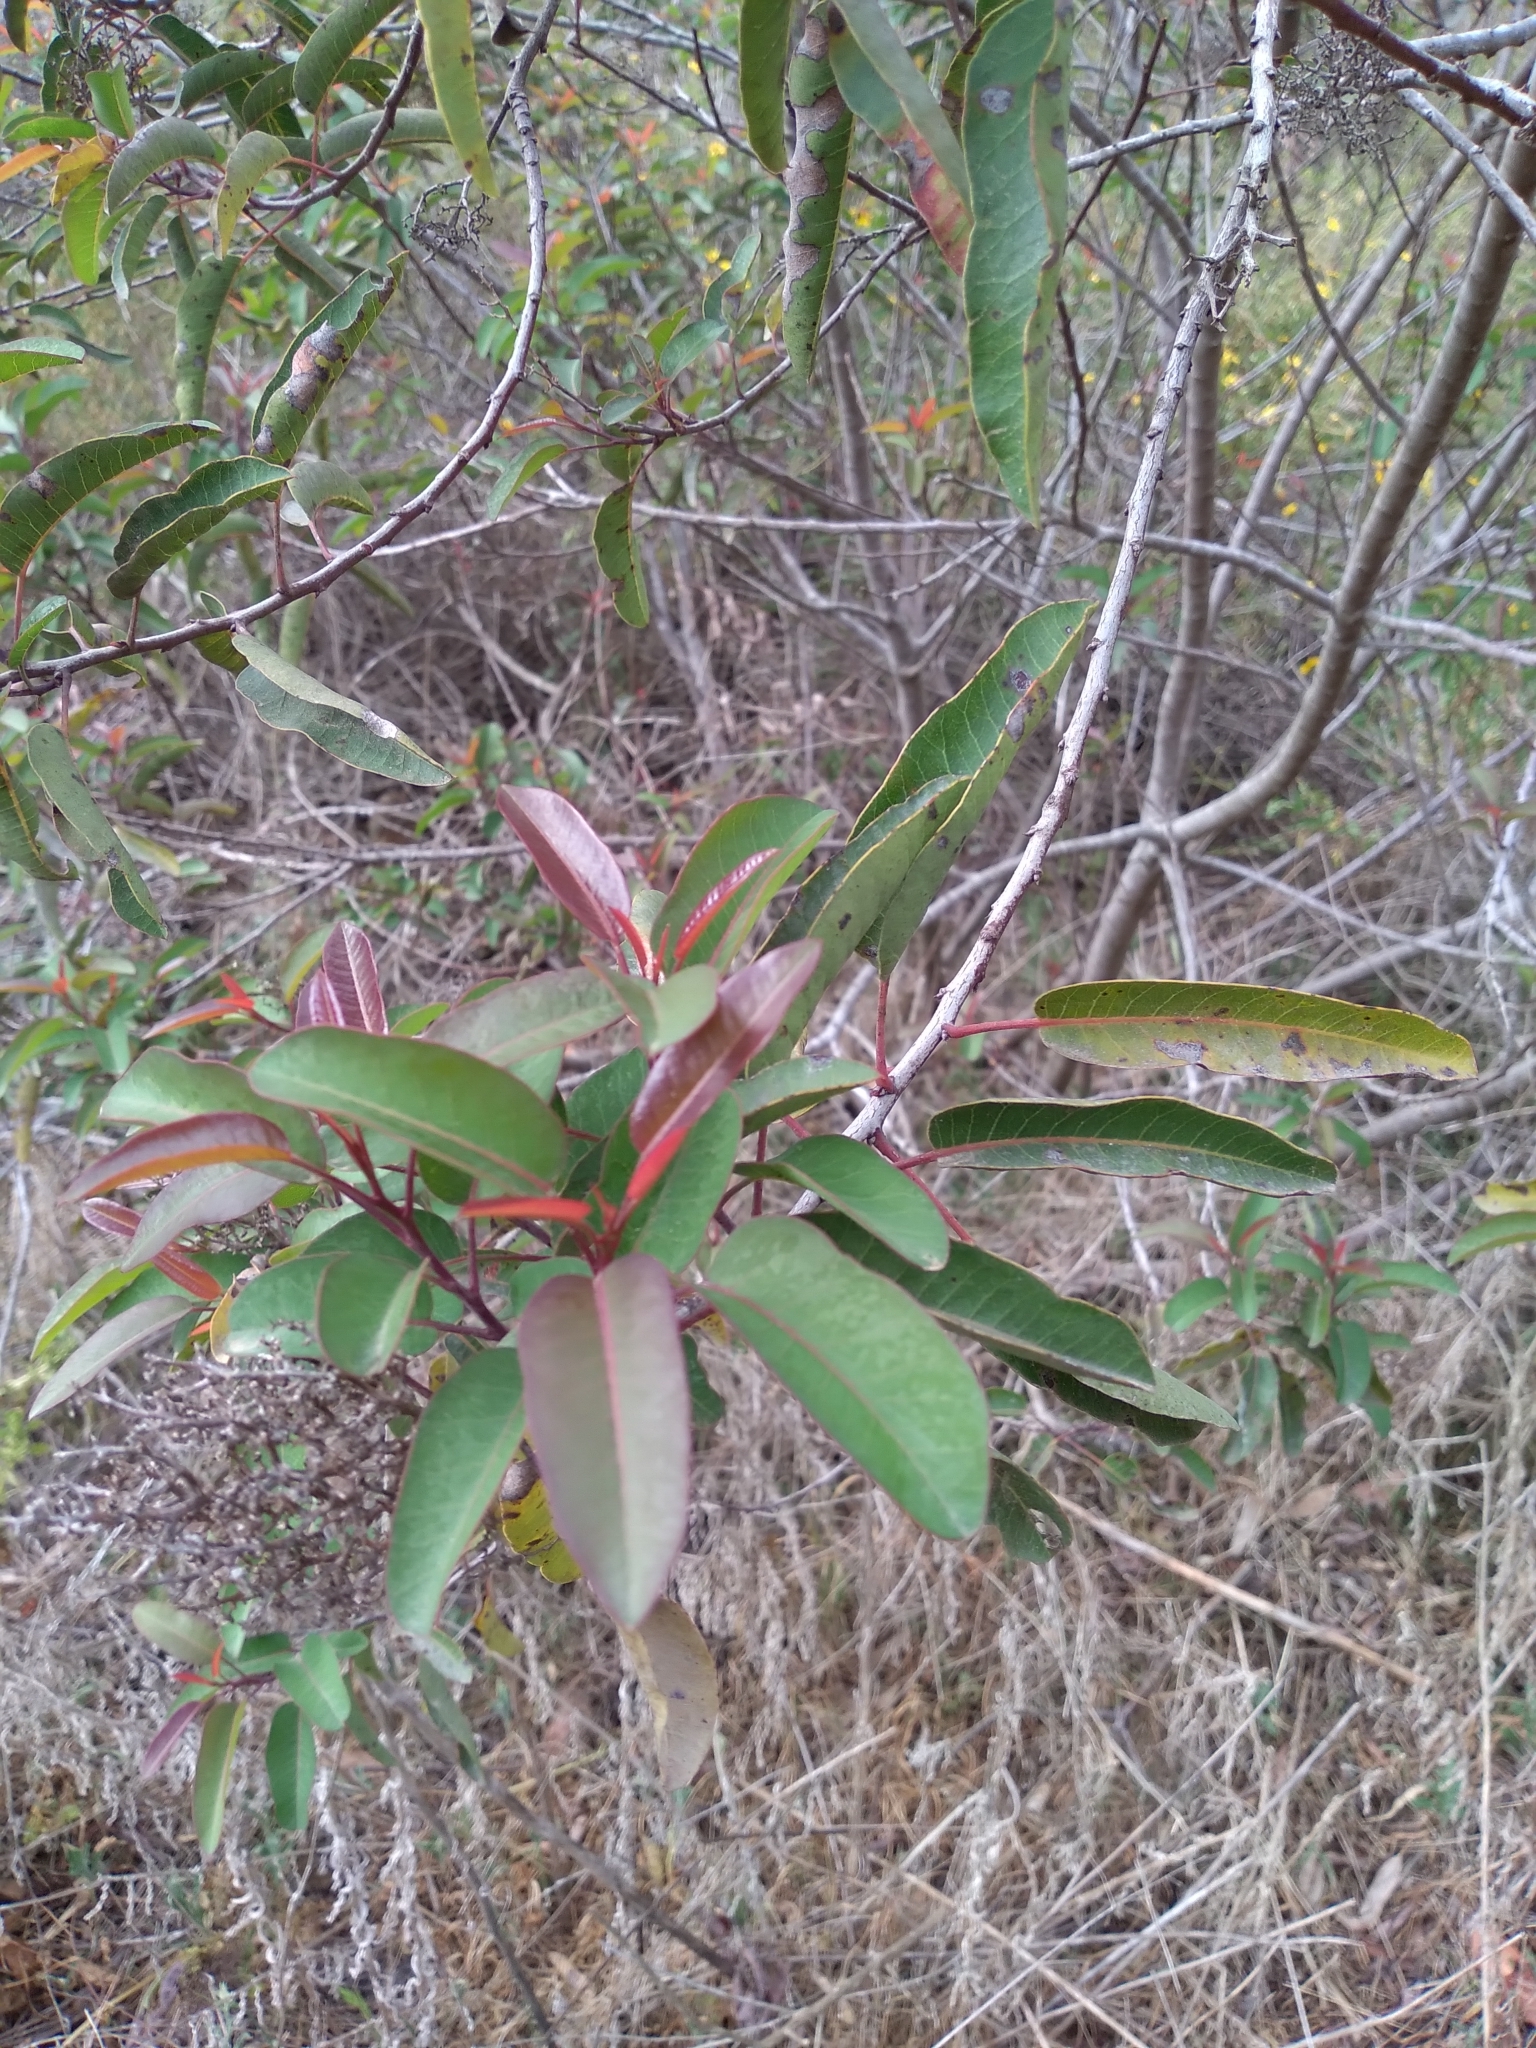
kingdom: Plantae
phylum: Tracheophyta
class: Magnoliopsida
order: Sapindales
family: Anacardiaceae
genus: Malosma
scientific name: Malosma laurina
